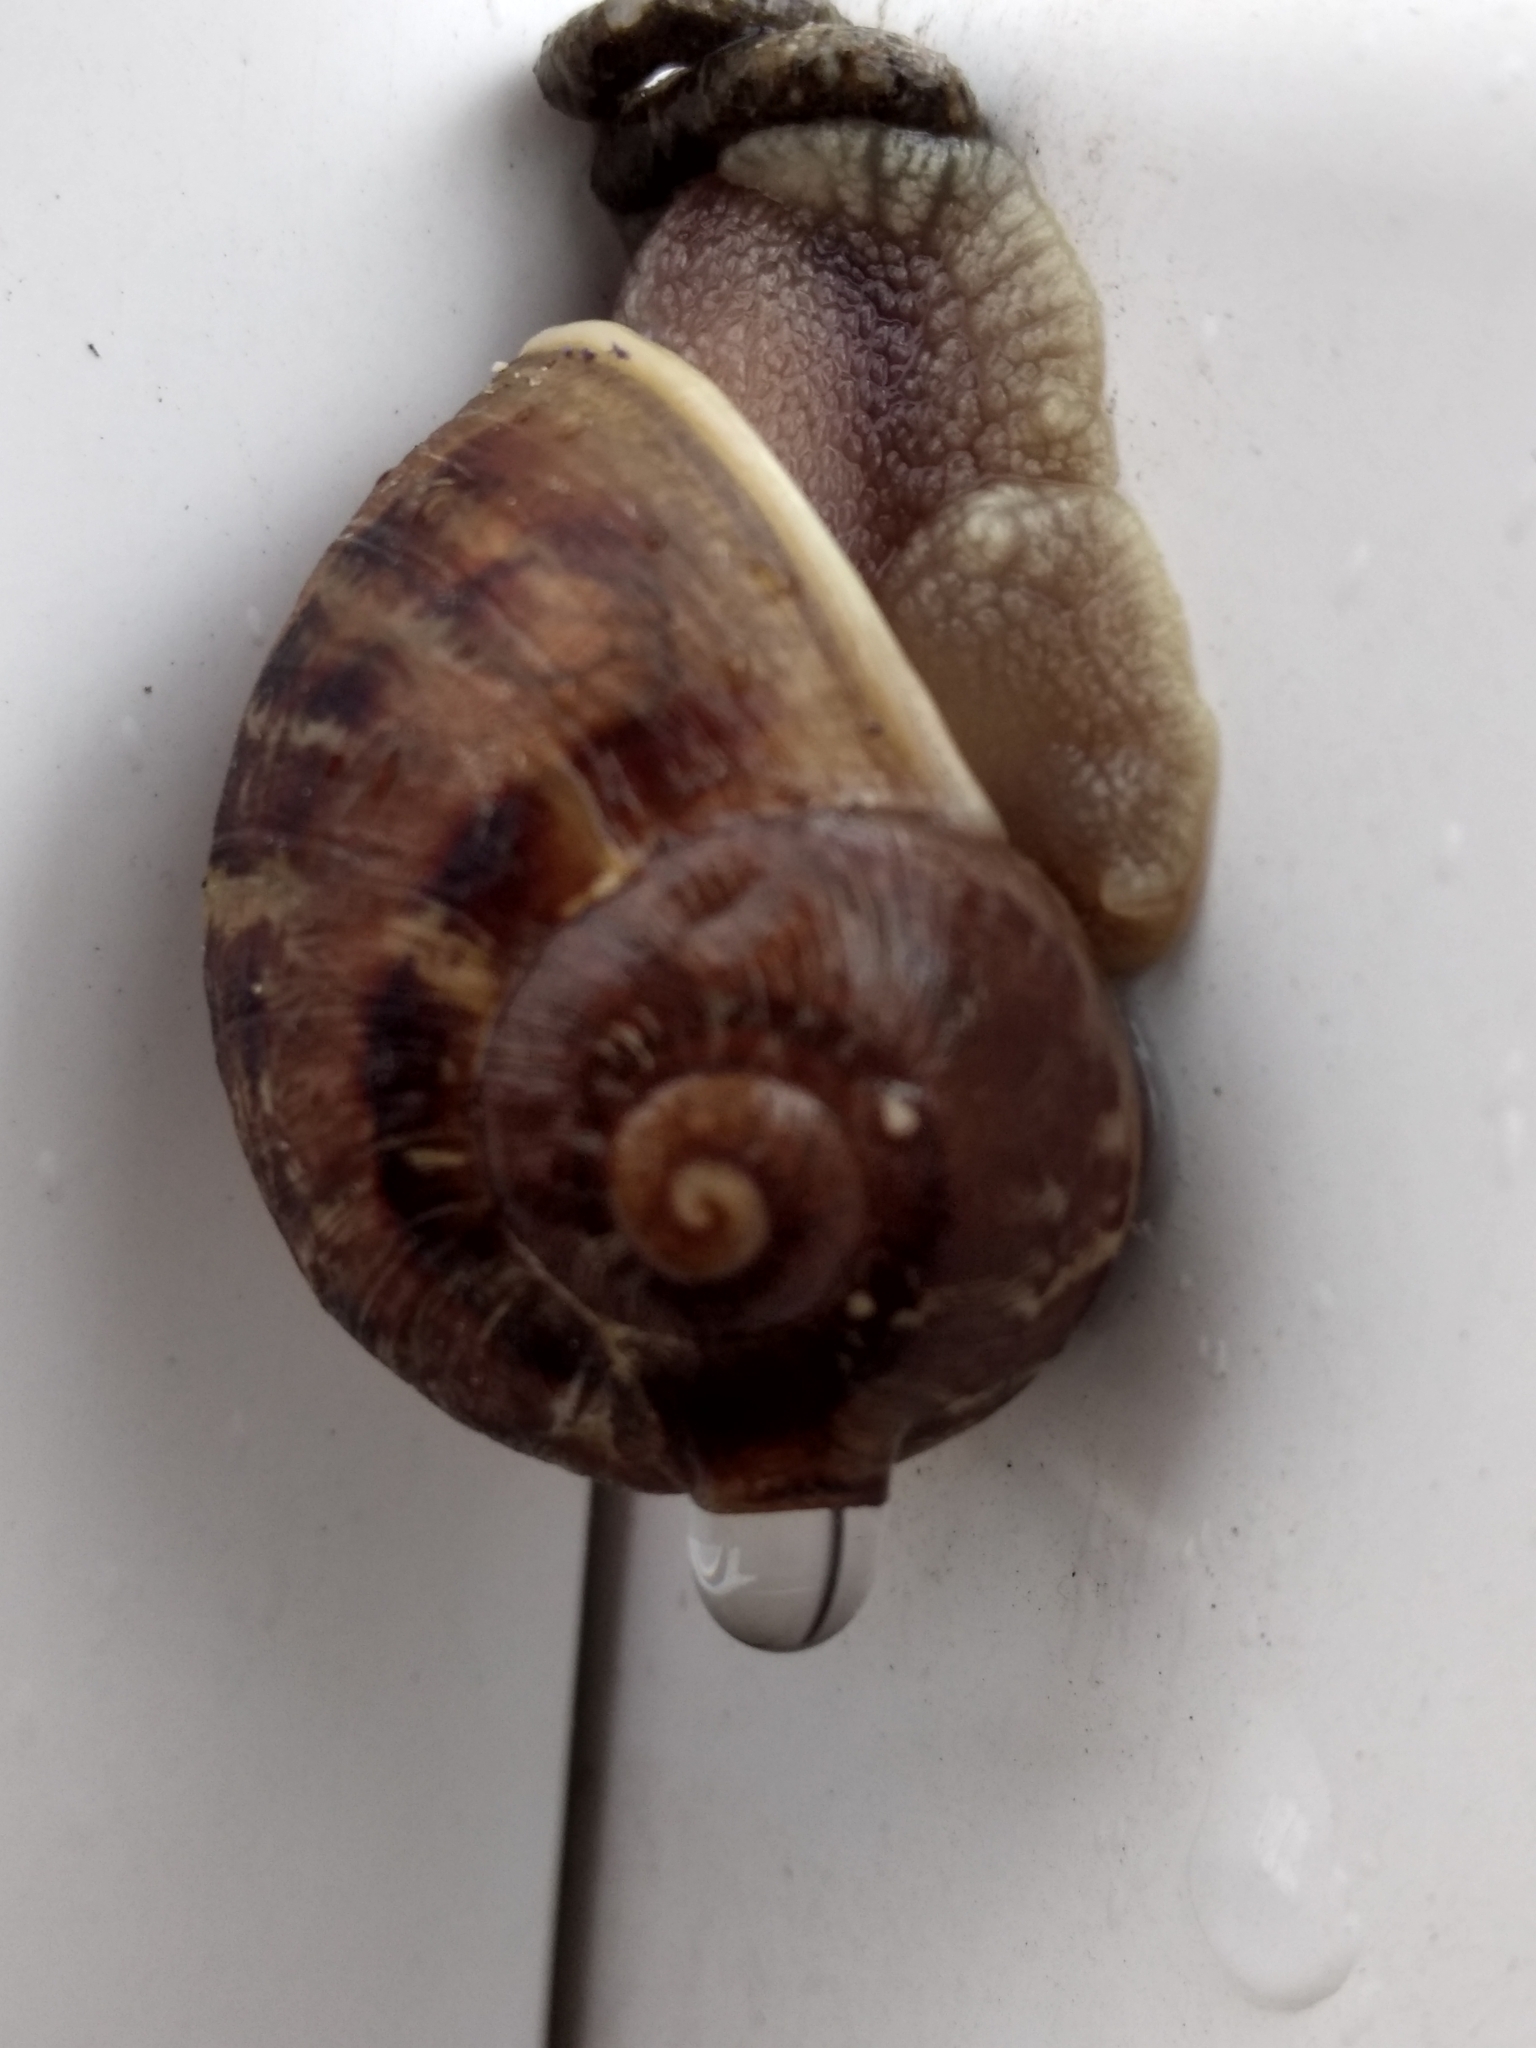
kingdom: Animalia
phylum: Mollusca
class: Gastropoda
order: Stylommatophora
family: Helicidae
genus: Cornu
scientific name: Cornu aspersum
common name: Brown garden snail
